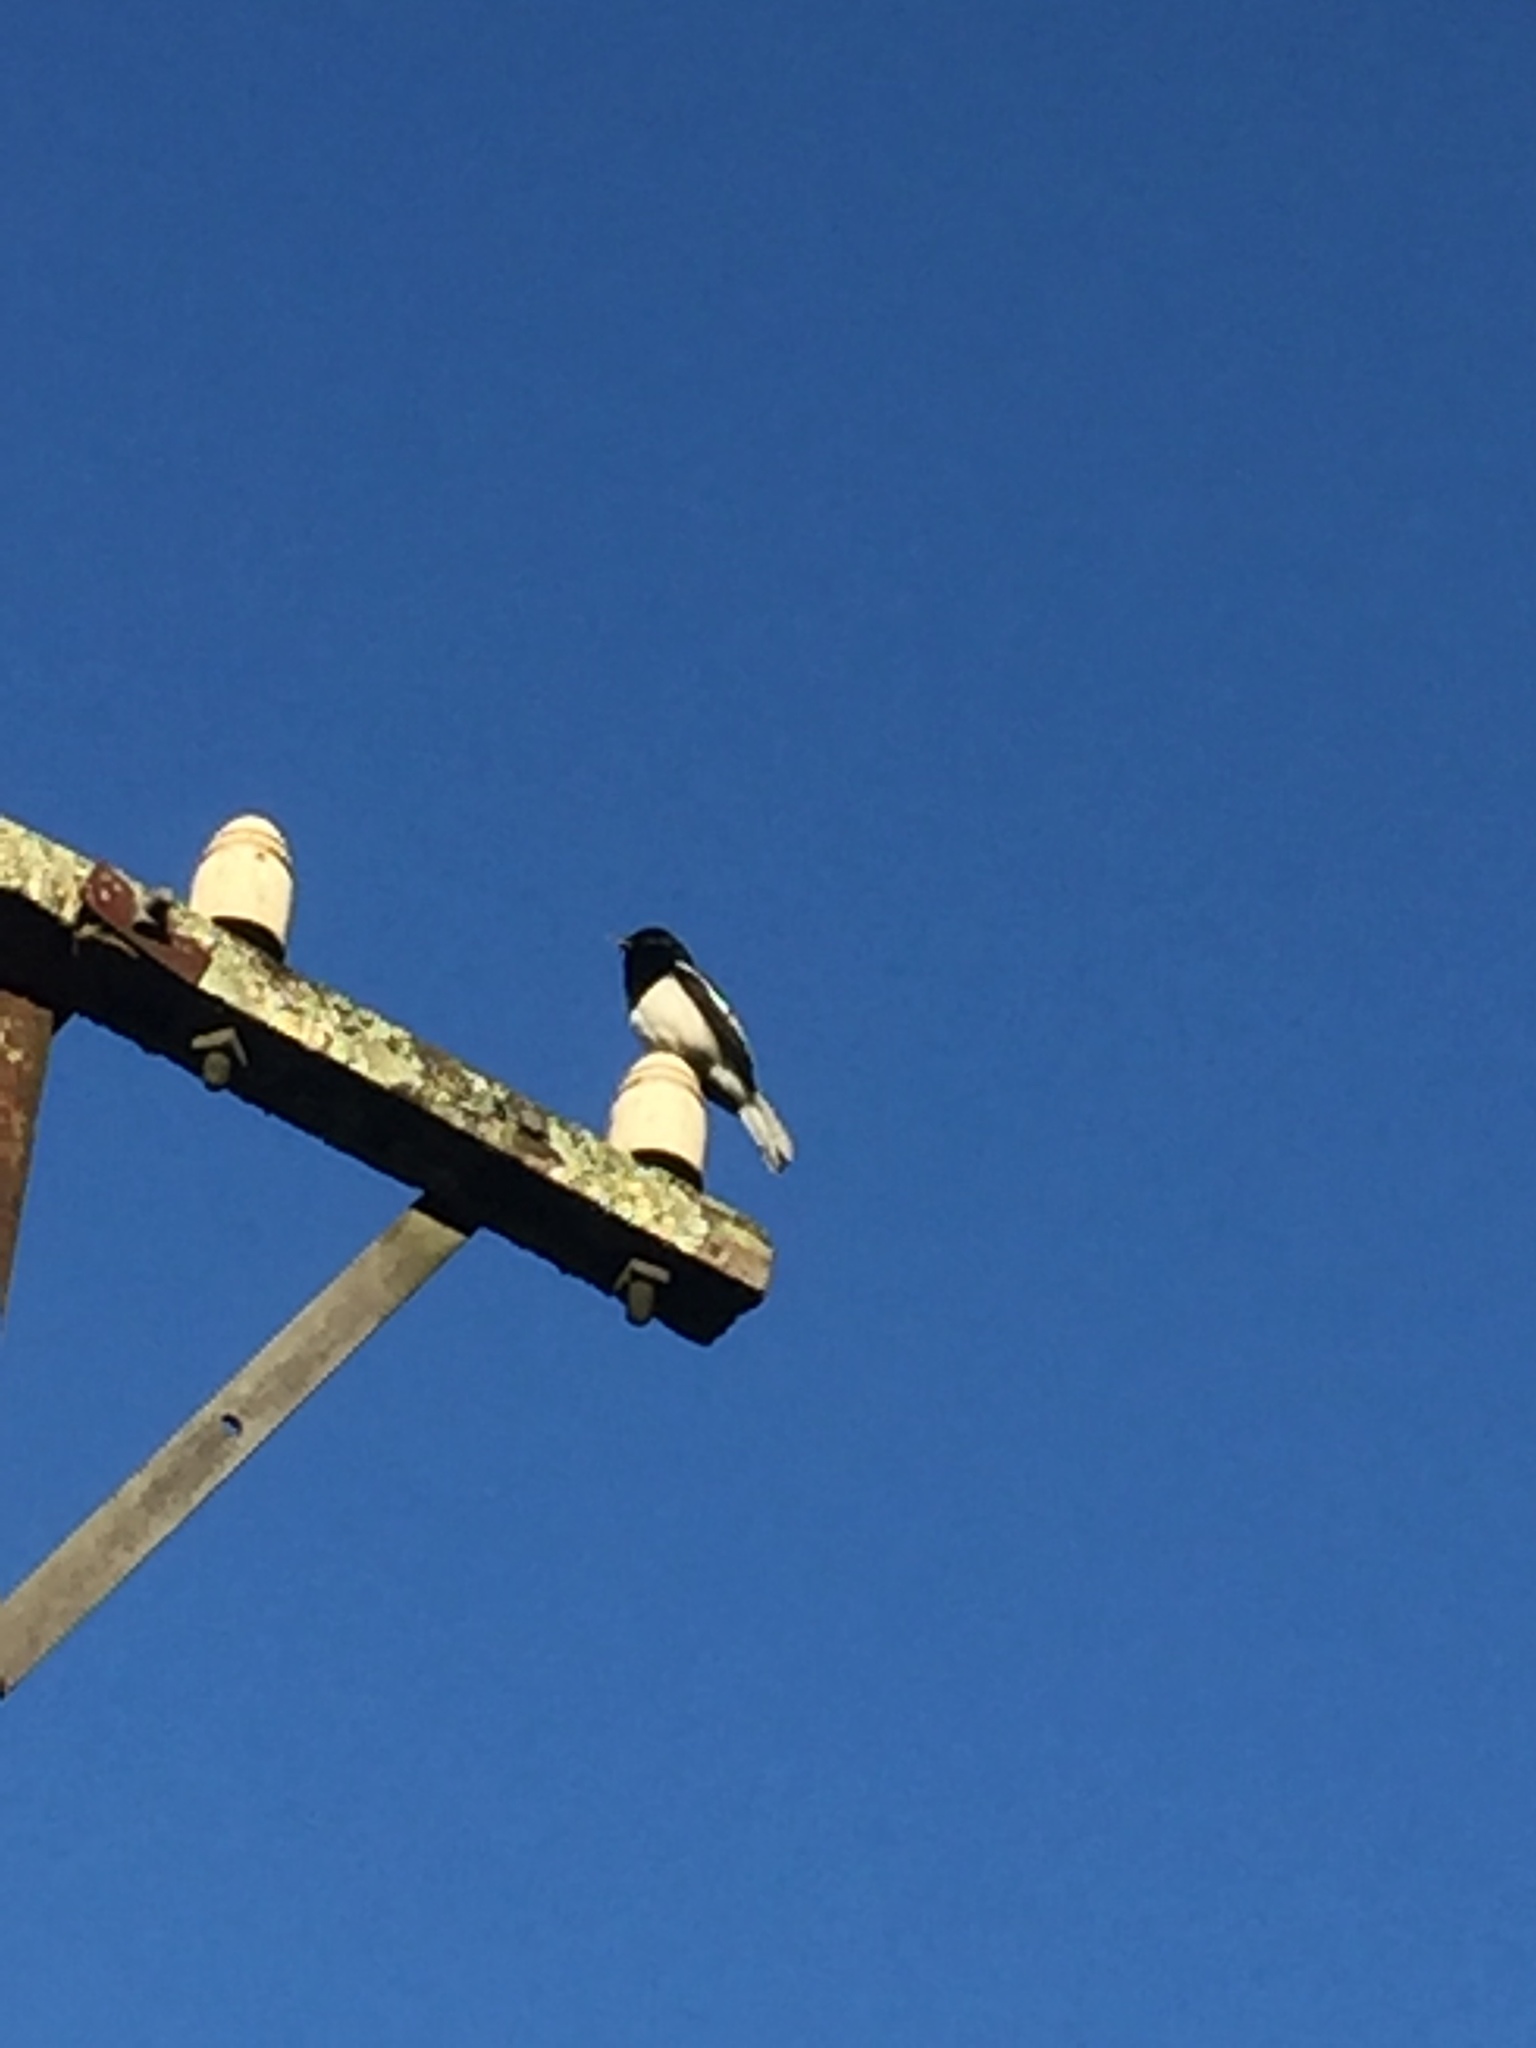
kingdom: Animalia
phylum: Chordata
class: Aves
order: Passeriformes
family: Muscicapidae
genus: Copsychus
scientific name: Copsychus saularis
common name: Oriental magpie-robin
